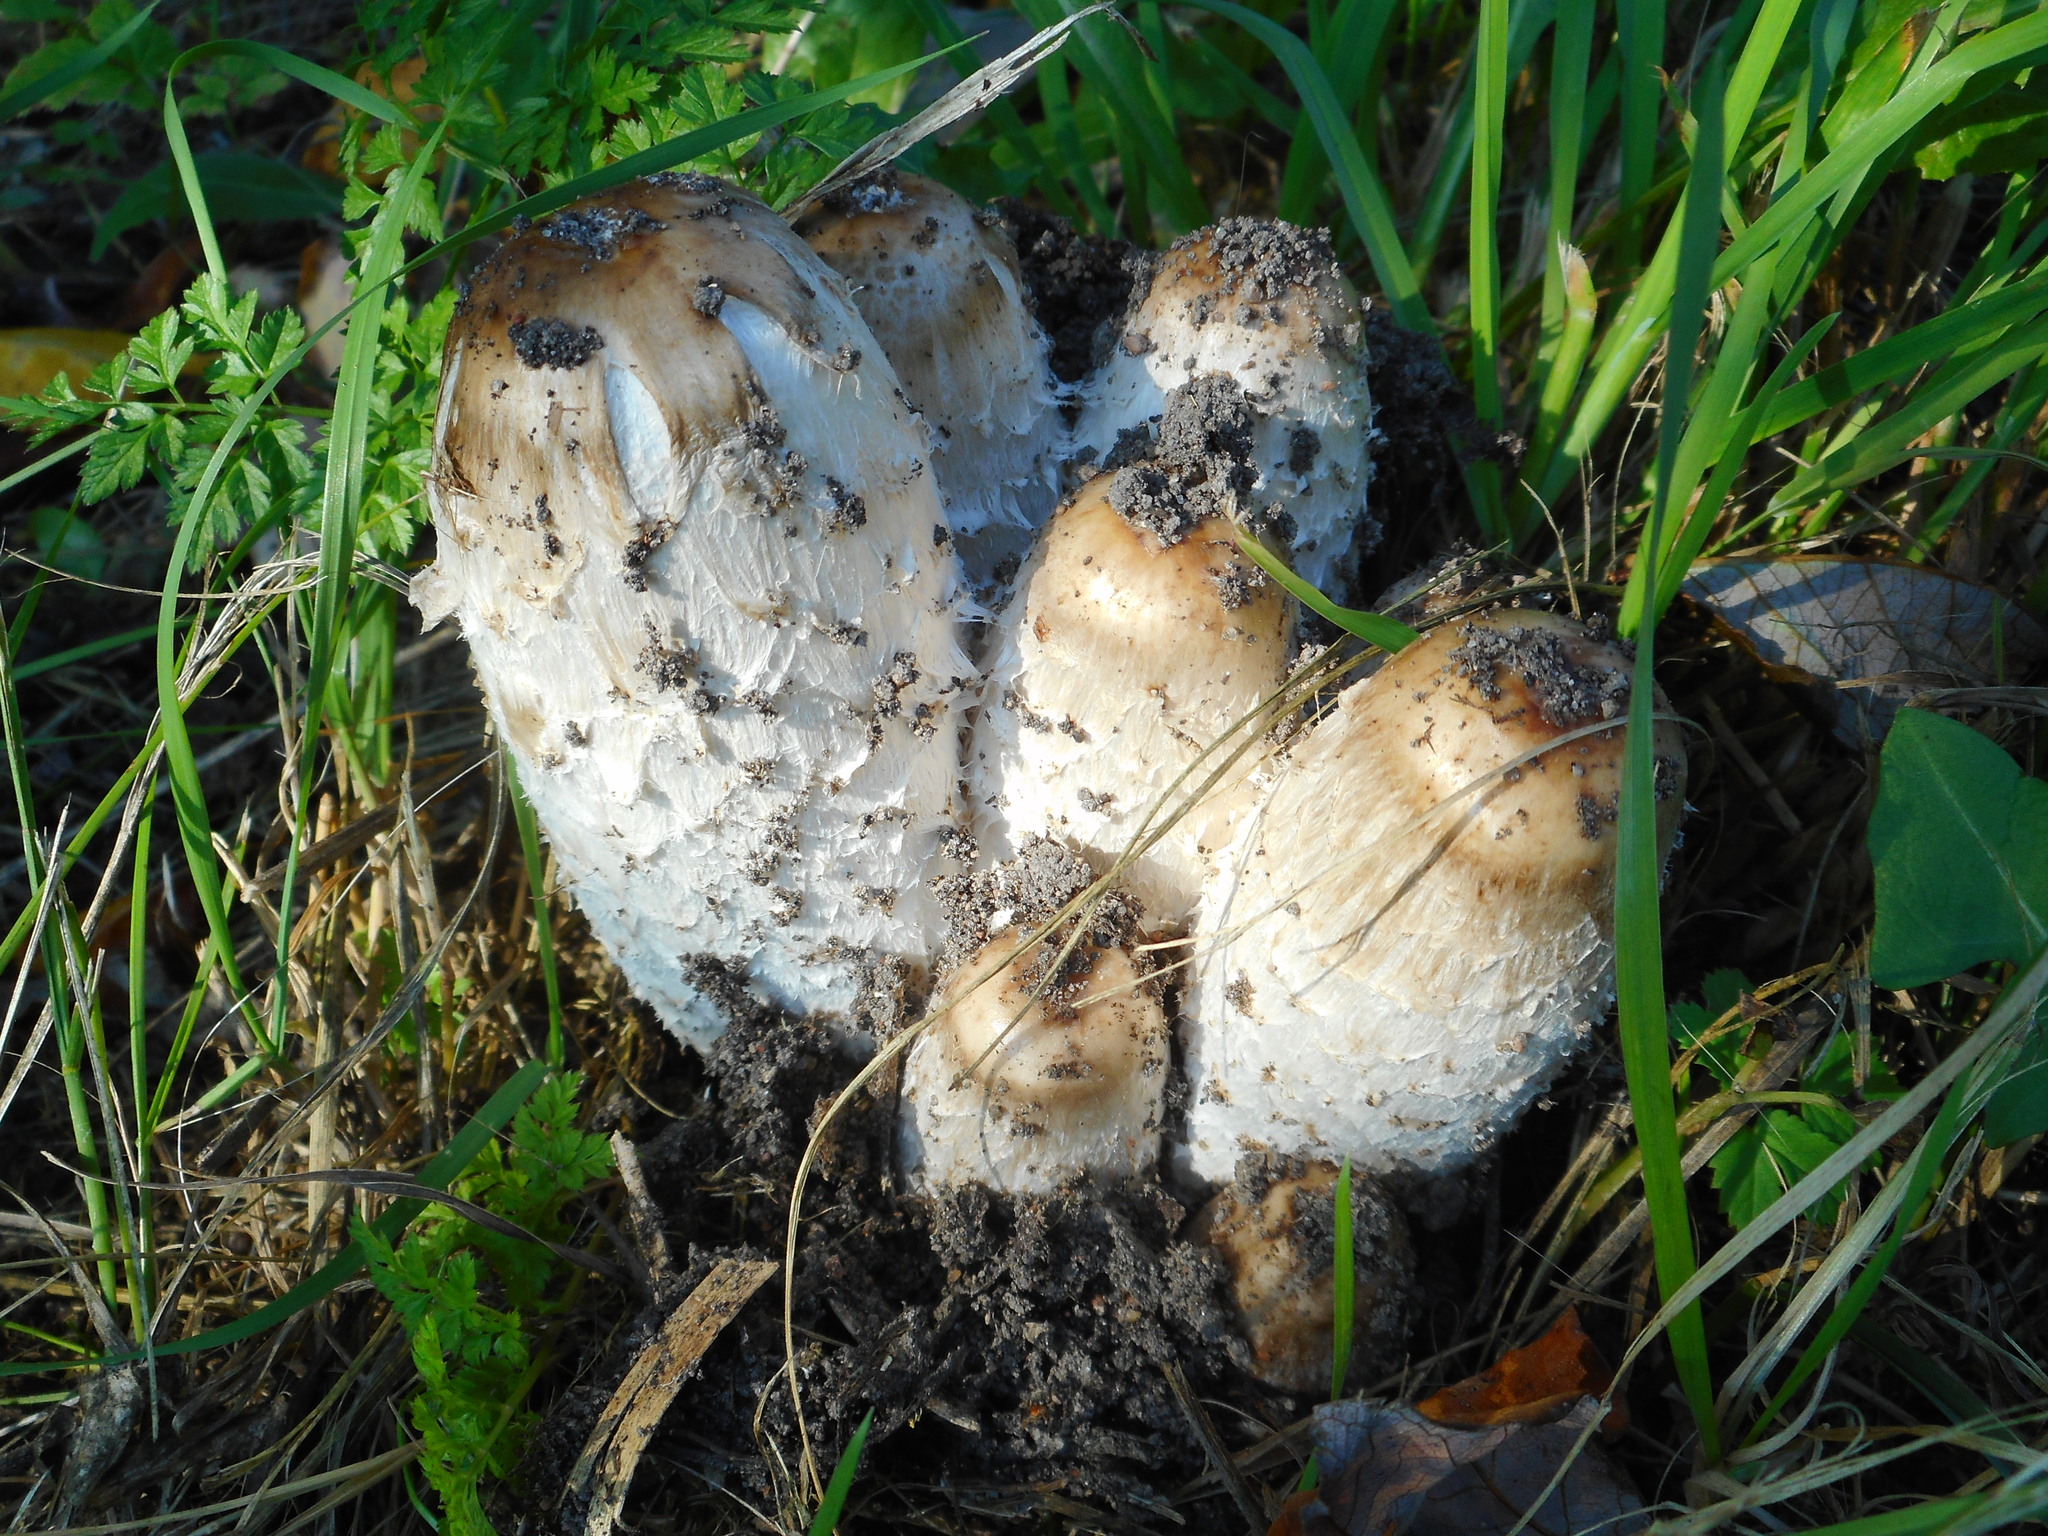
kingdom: Fungi
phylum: Basidiomycota
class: Agaricomycetes
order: Agaricales
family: Agaricaceae
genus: Coprinus
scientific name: Coprinus comatus
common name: Lawyer's wig
